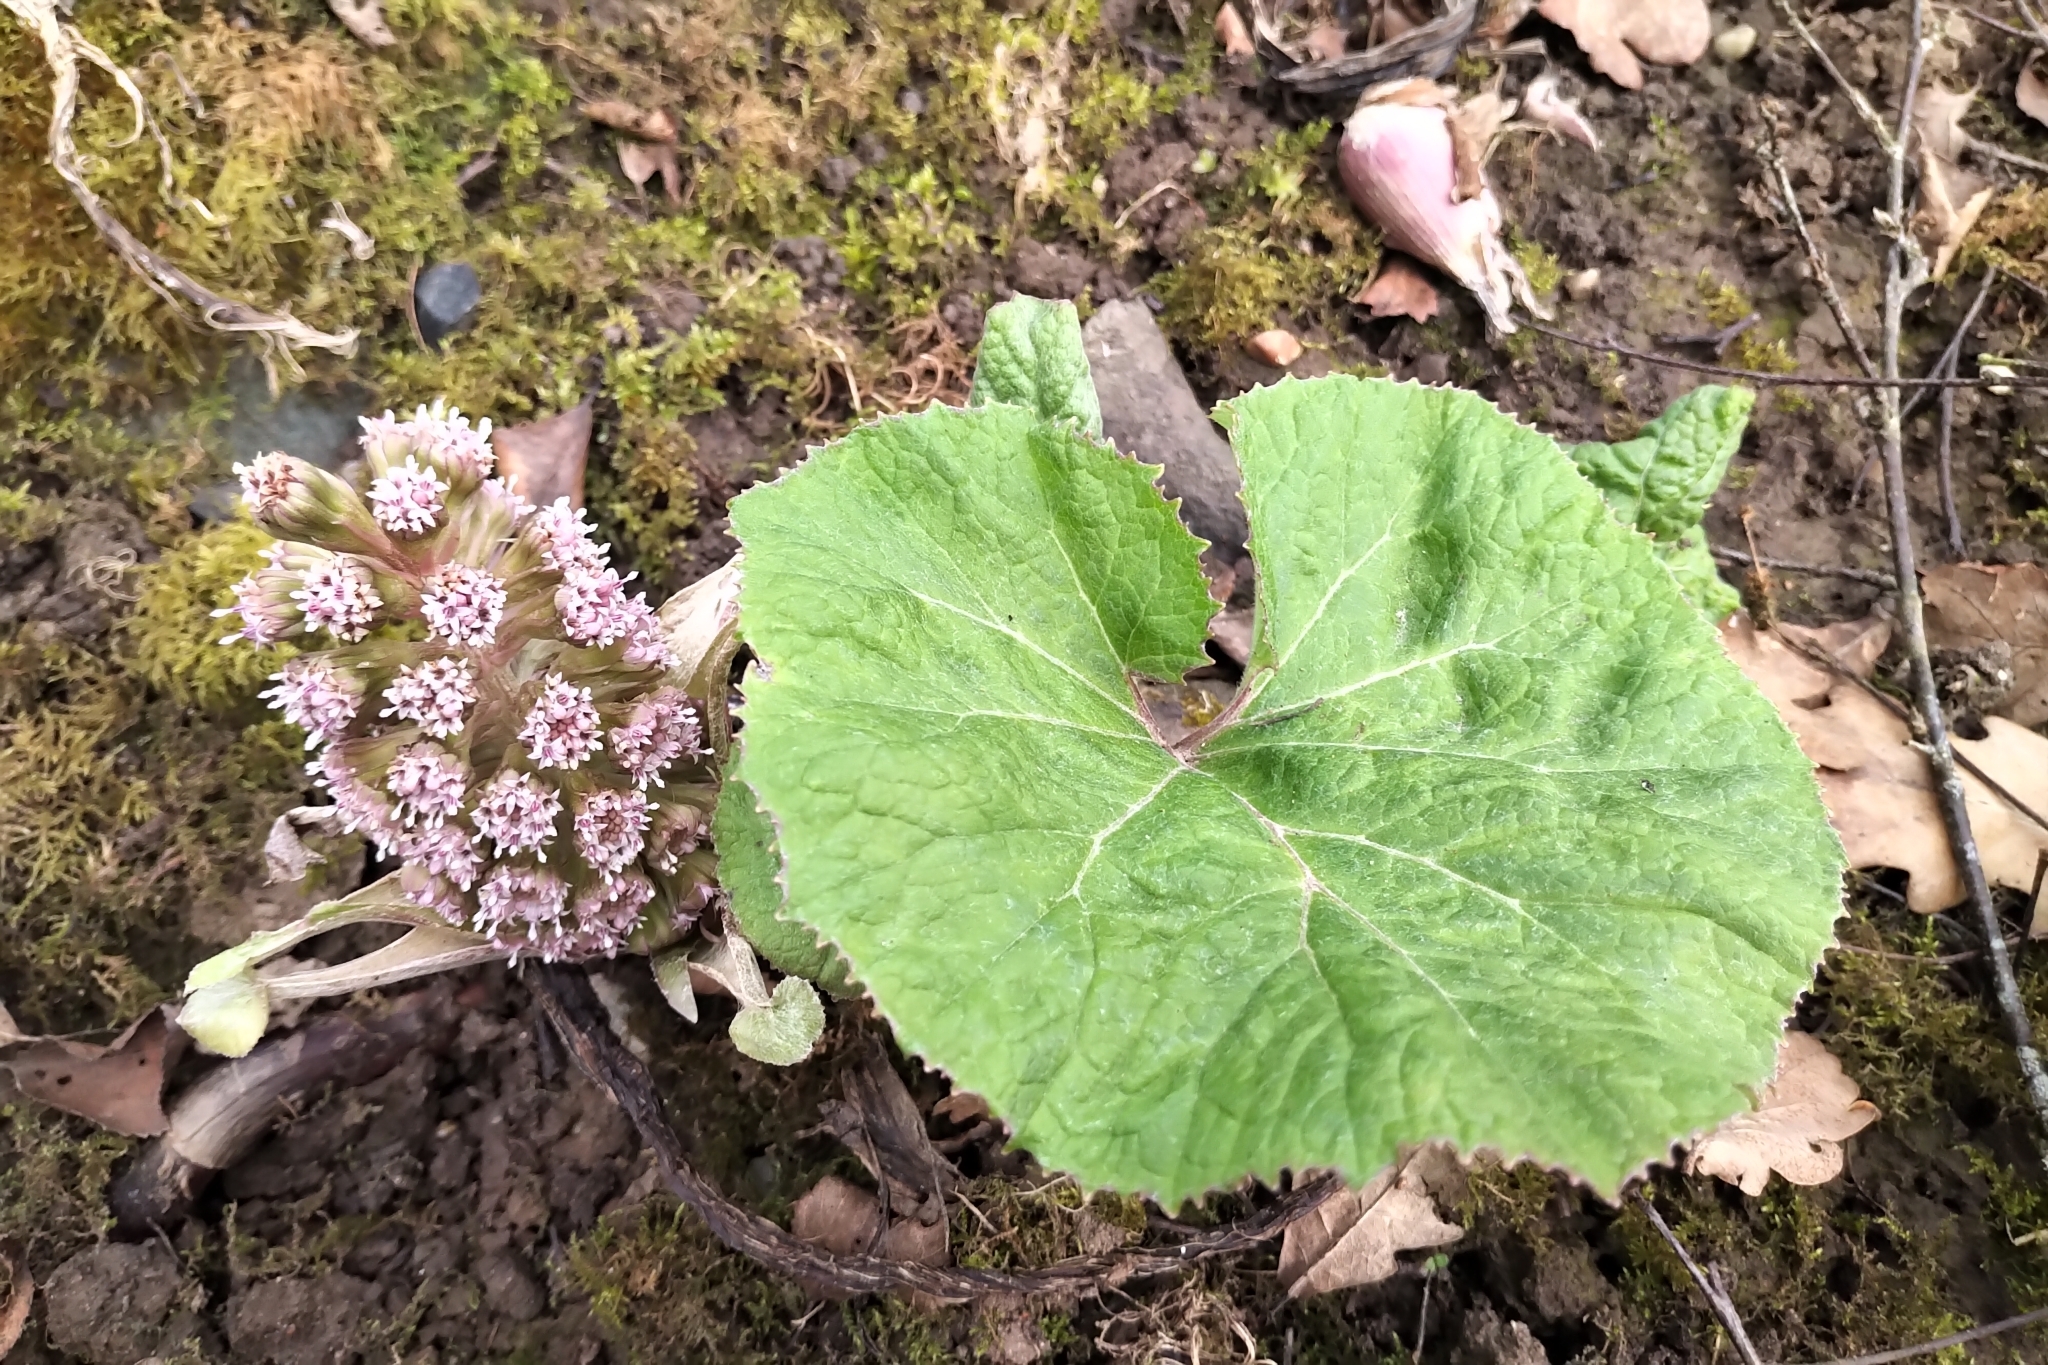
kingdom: Plantae
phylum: Tracheophyta
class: Magnoliopsida
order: Asterales
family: Asteraceae
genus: Petasites
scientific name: Petasites hybridus
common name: Butterbur
